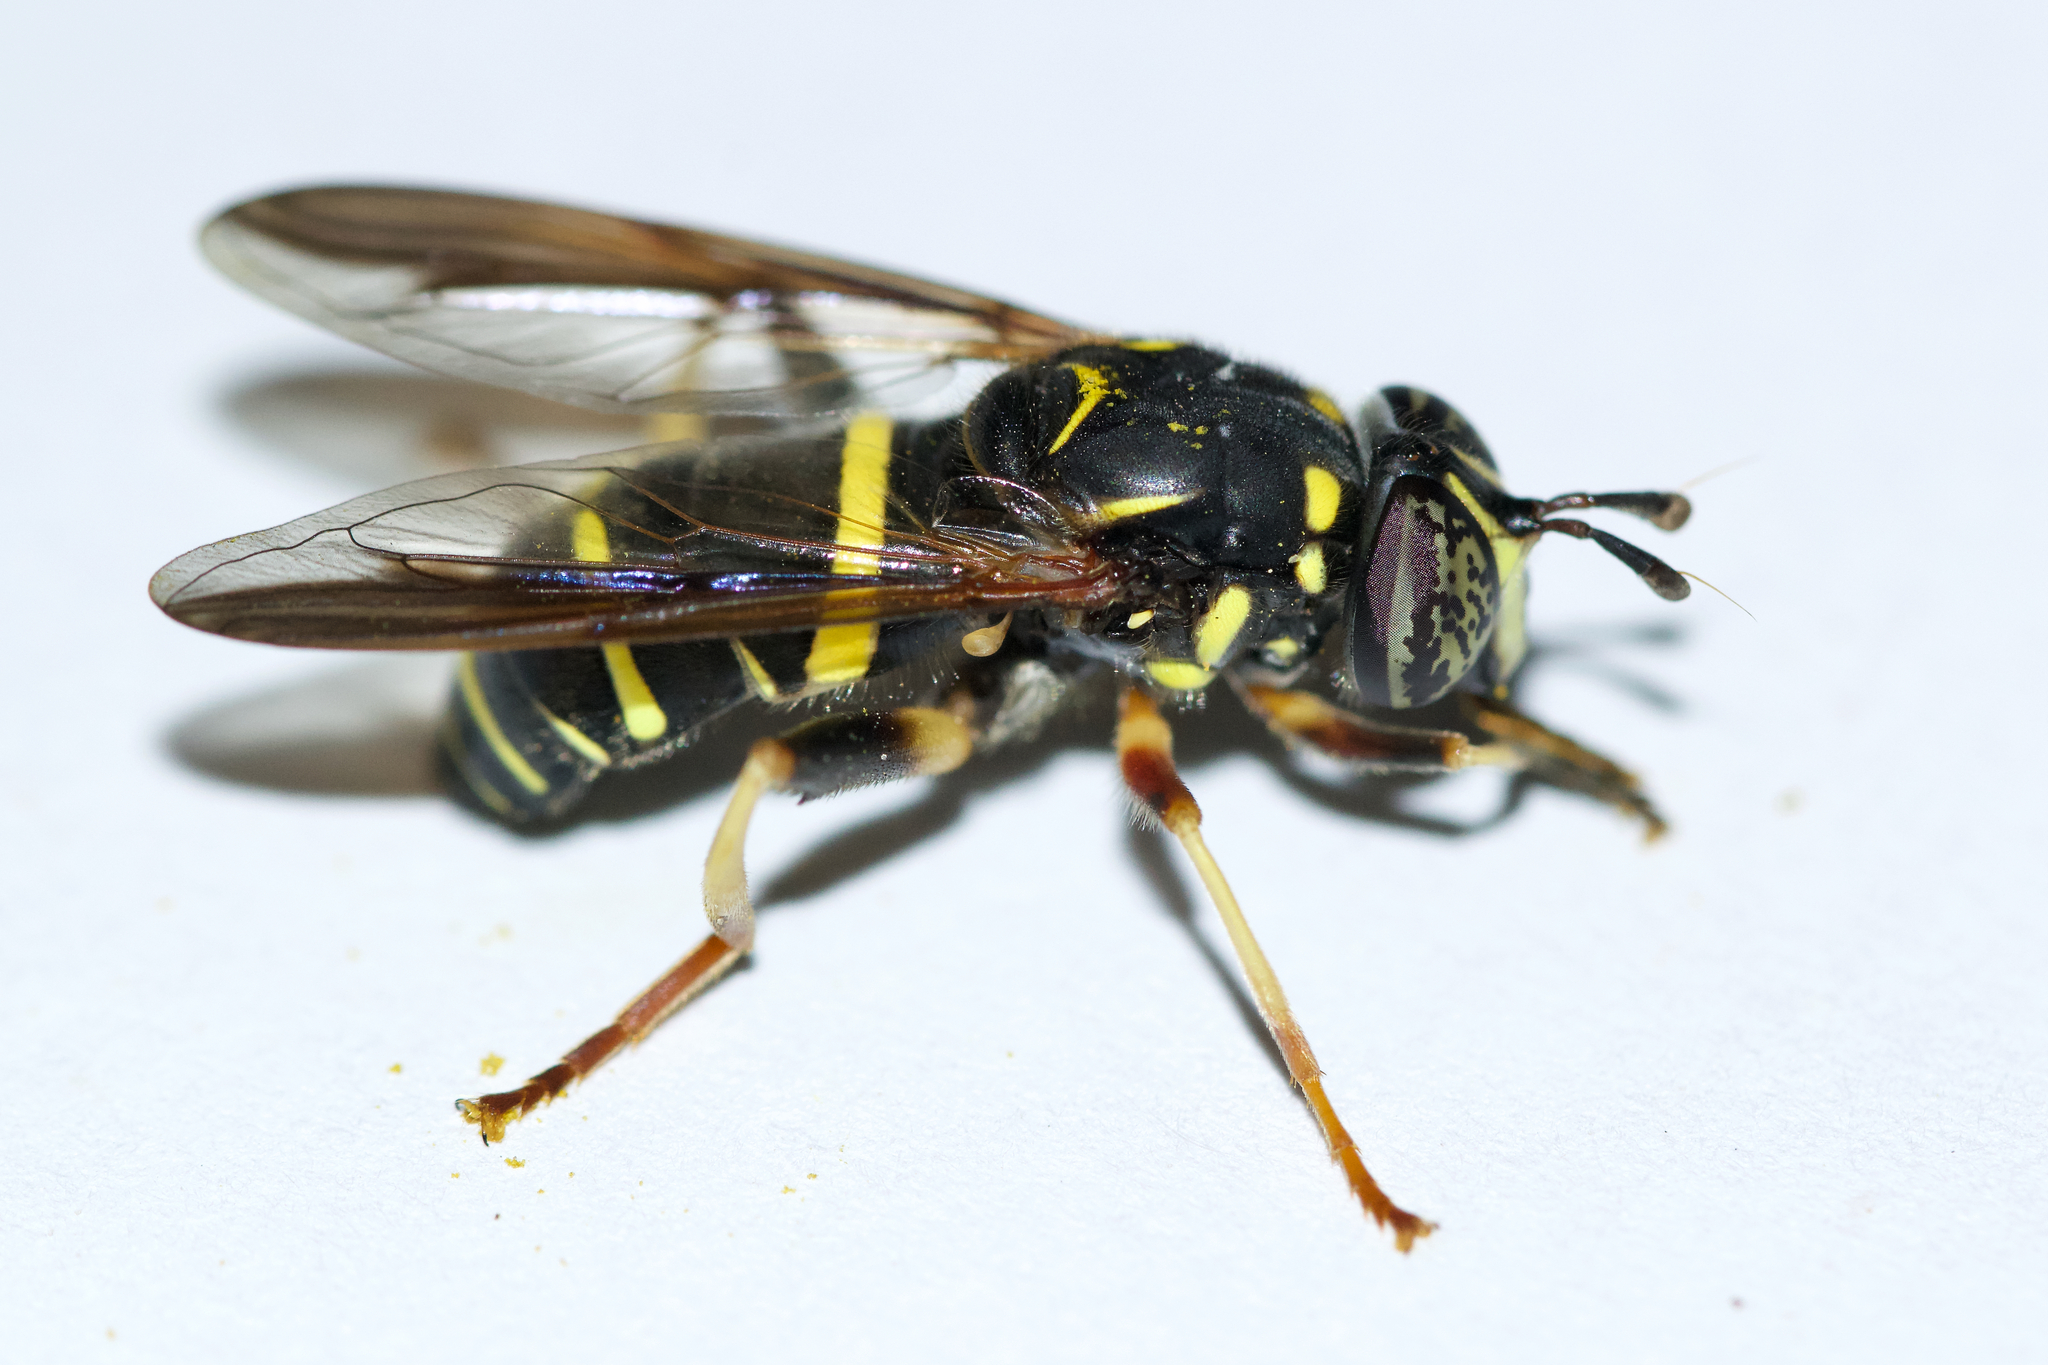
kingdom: Animalia
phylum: Arthropoda
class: Insecta
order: Diptera
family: Syrphidae
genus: Spilomyia
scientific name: Spilomyia sayi
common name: Four-lined hornet fly
